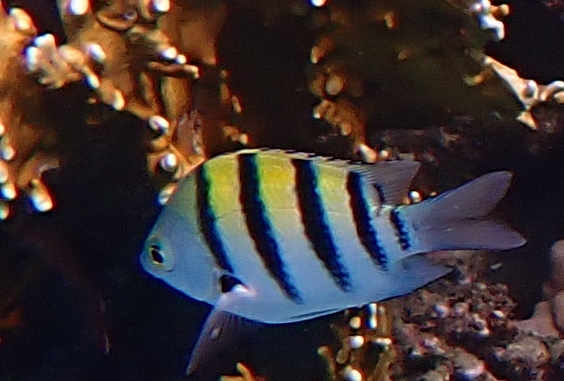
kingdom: Animalia
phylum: Chordata
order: Perciformes
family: Pomacentridae
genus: Abudefduf
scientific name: Abudefduf vaigiensis
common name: Indo-pacific sergeant
